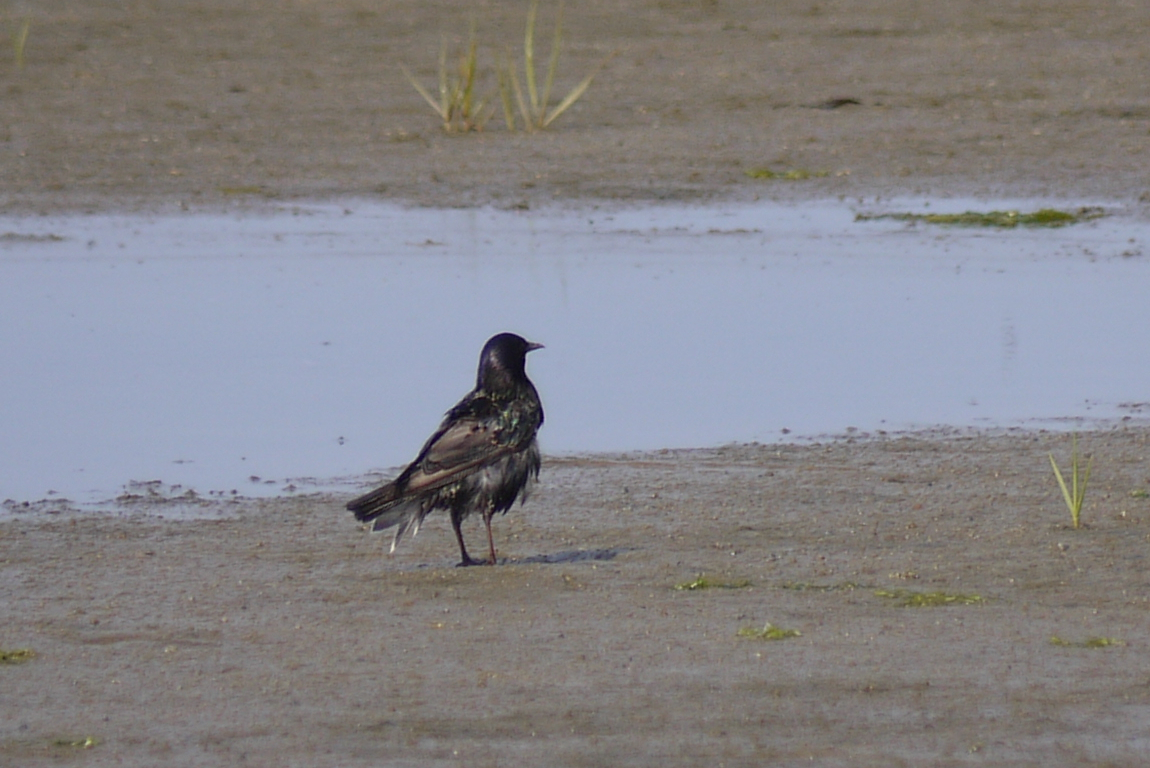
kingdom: Animalia
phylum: Chordata
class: Aves
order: Passeriformes
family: Sturnidae
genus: Sturnus
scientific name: Sturnus vulgaris
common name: Common starling
